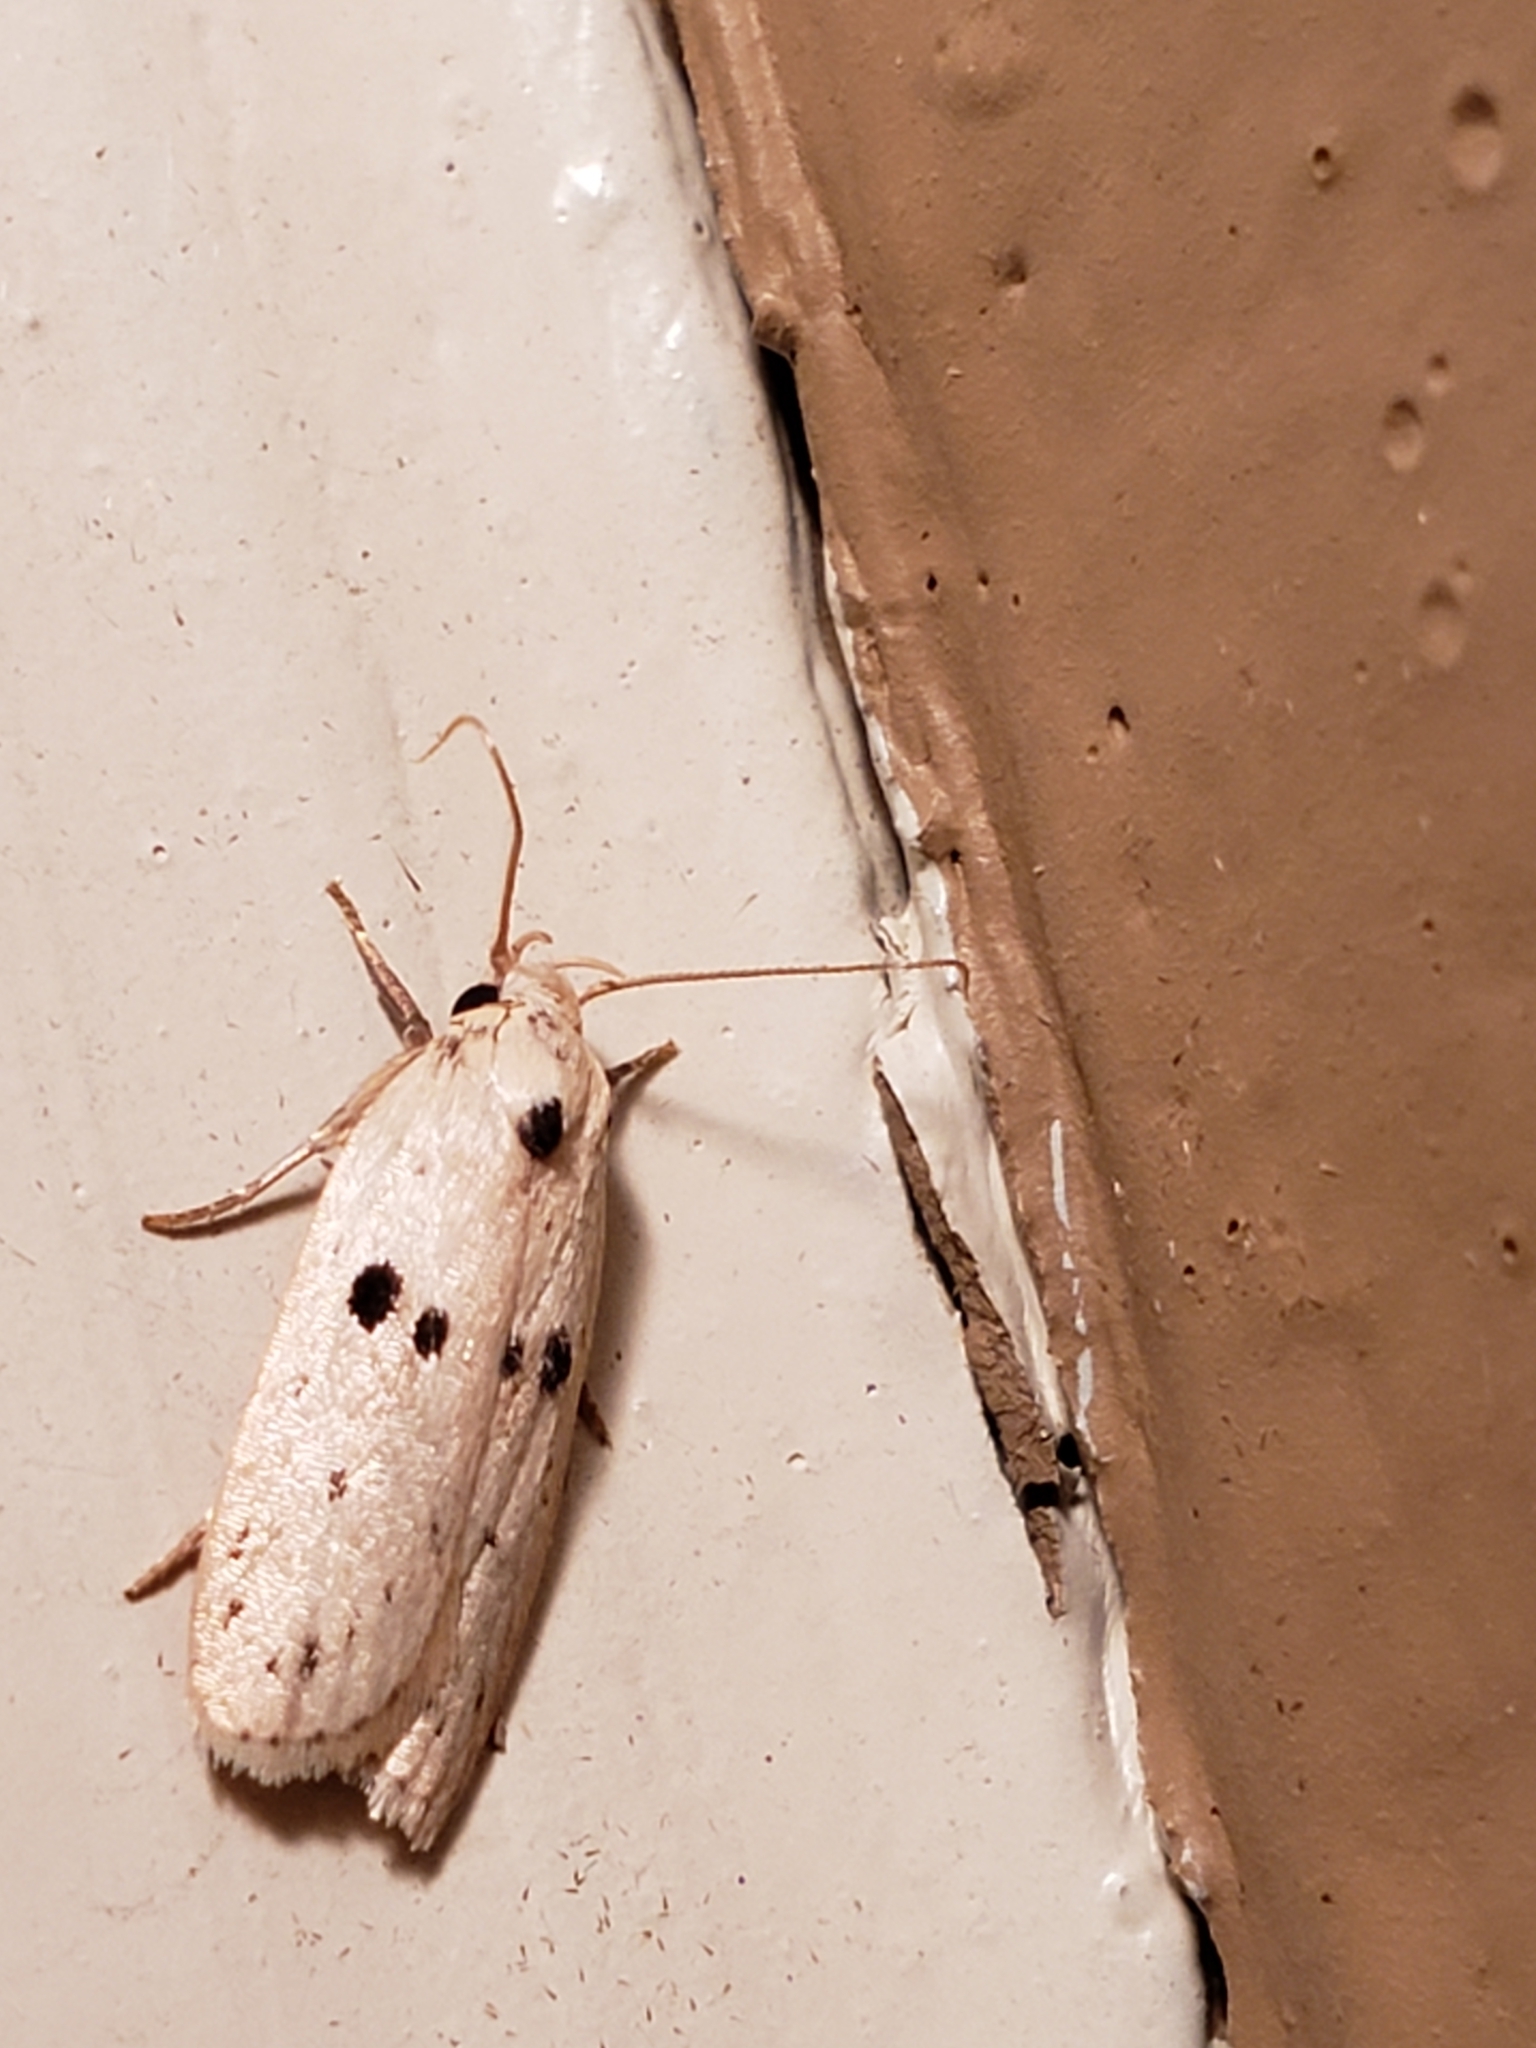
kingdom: Animalia
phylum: Arthropoda
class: Insecta
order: Lepidoptera
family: Peleopodidae
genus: Scythropiodes
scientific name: Scythropiodes issikii
